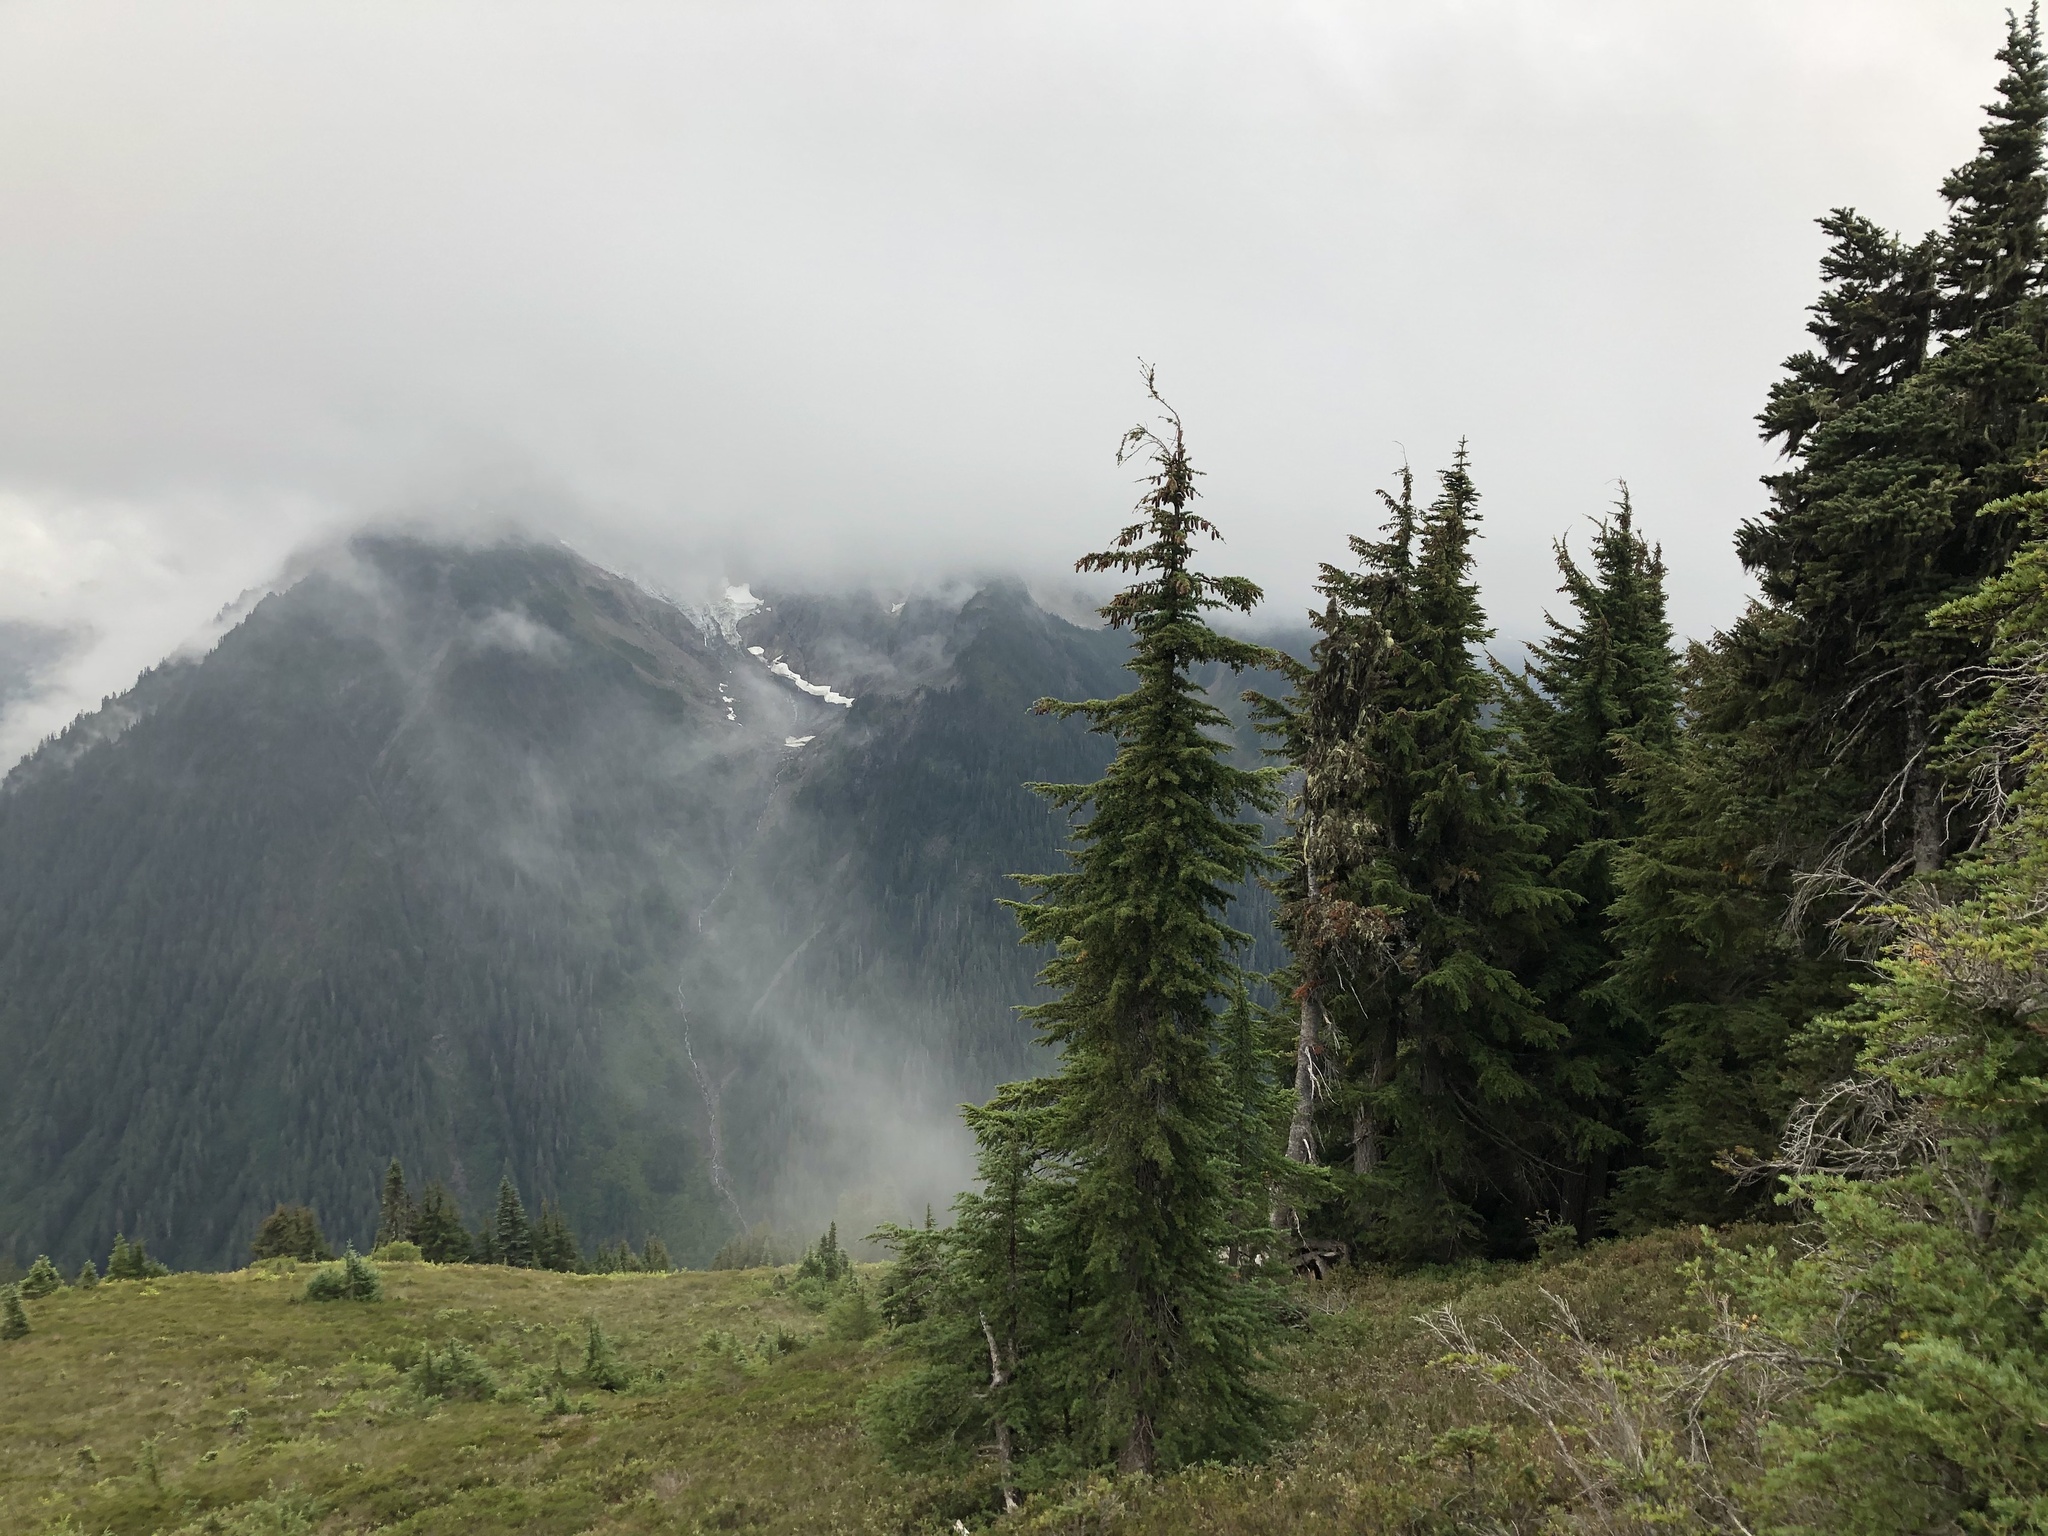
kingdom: Plantae
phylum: Tracheophyta
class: Pinopsida
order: Pinales
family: Pinaceae
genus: Tsuga
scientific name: Tsuga mertensiana
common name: Mountain hemlock
